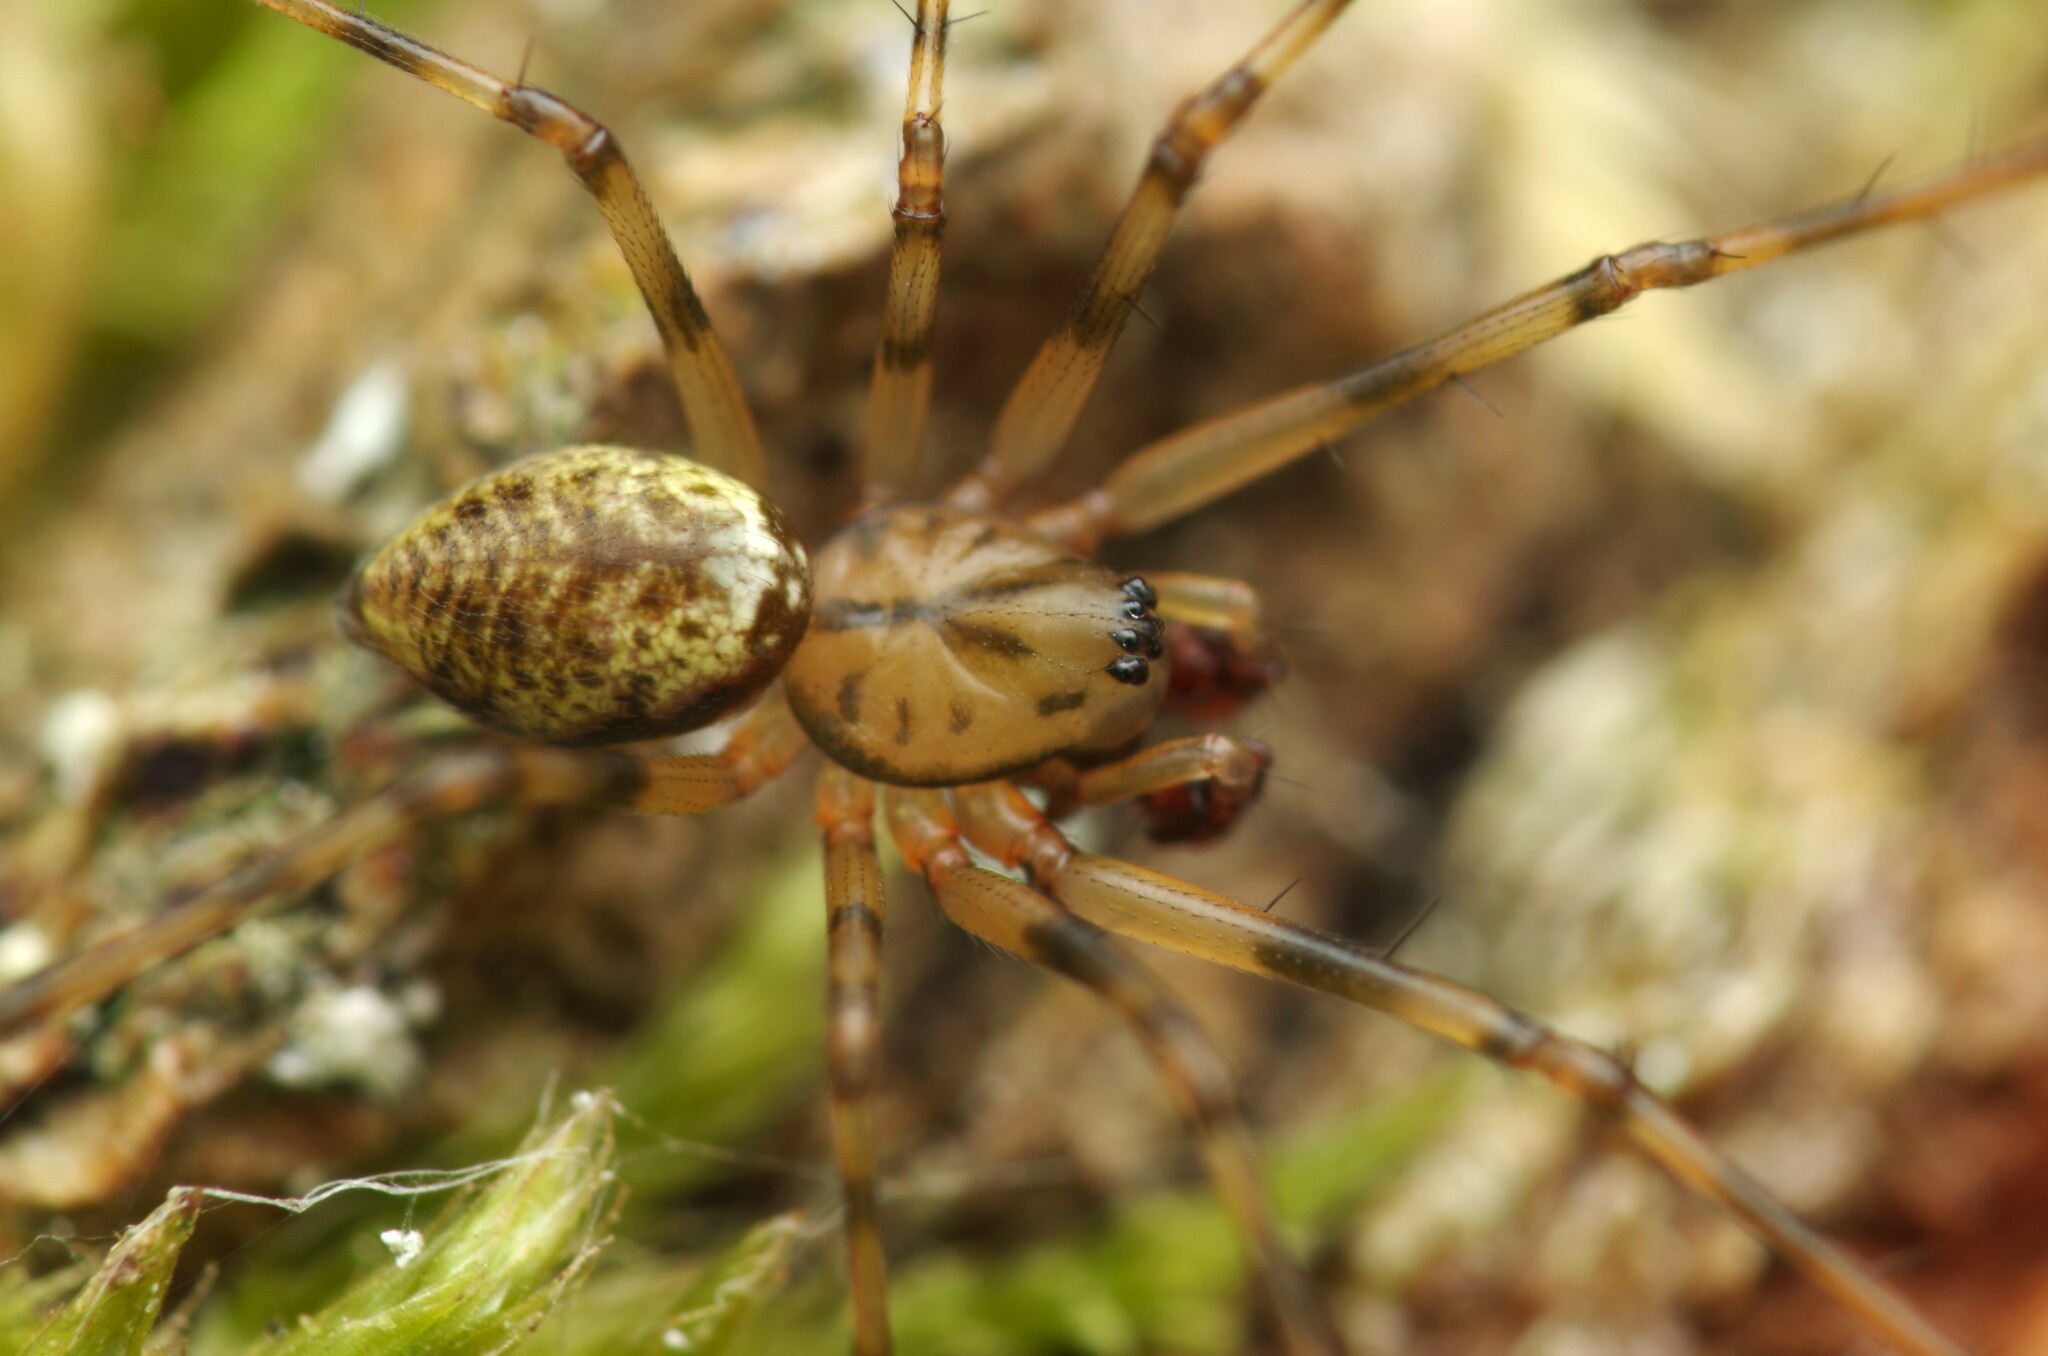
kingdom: Animalia
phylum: Arthropoda
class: Arachnida
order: Araneae
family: Linyphiidae
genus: Drapetisca
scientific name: Drapetisca socialis
